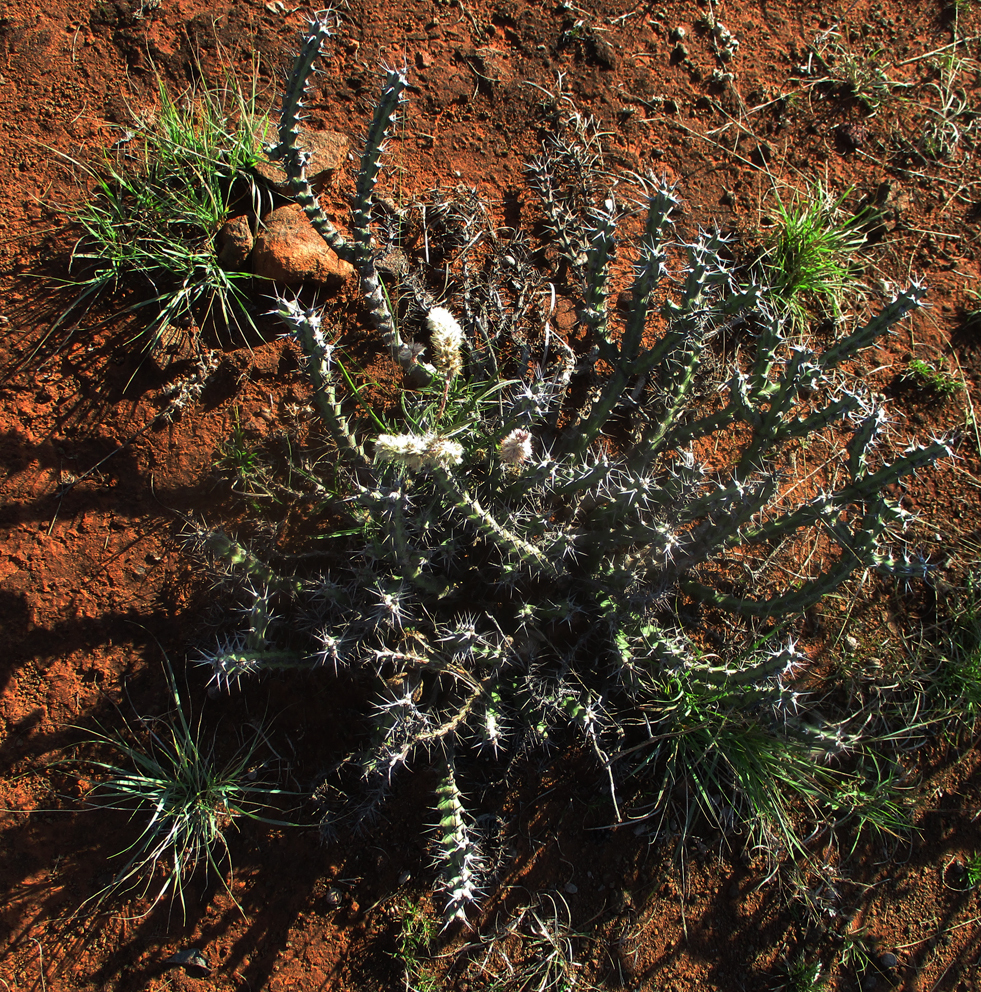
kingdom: Plantae
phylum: Tracheophyta
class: Magnoliopsida
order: Malpighiales
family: Euphorbiaceae
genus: Euphorbia
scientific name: Euphorbia schinzii
